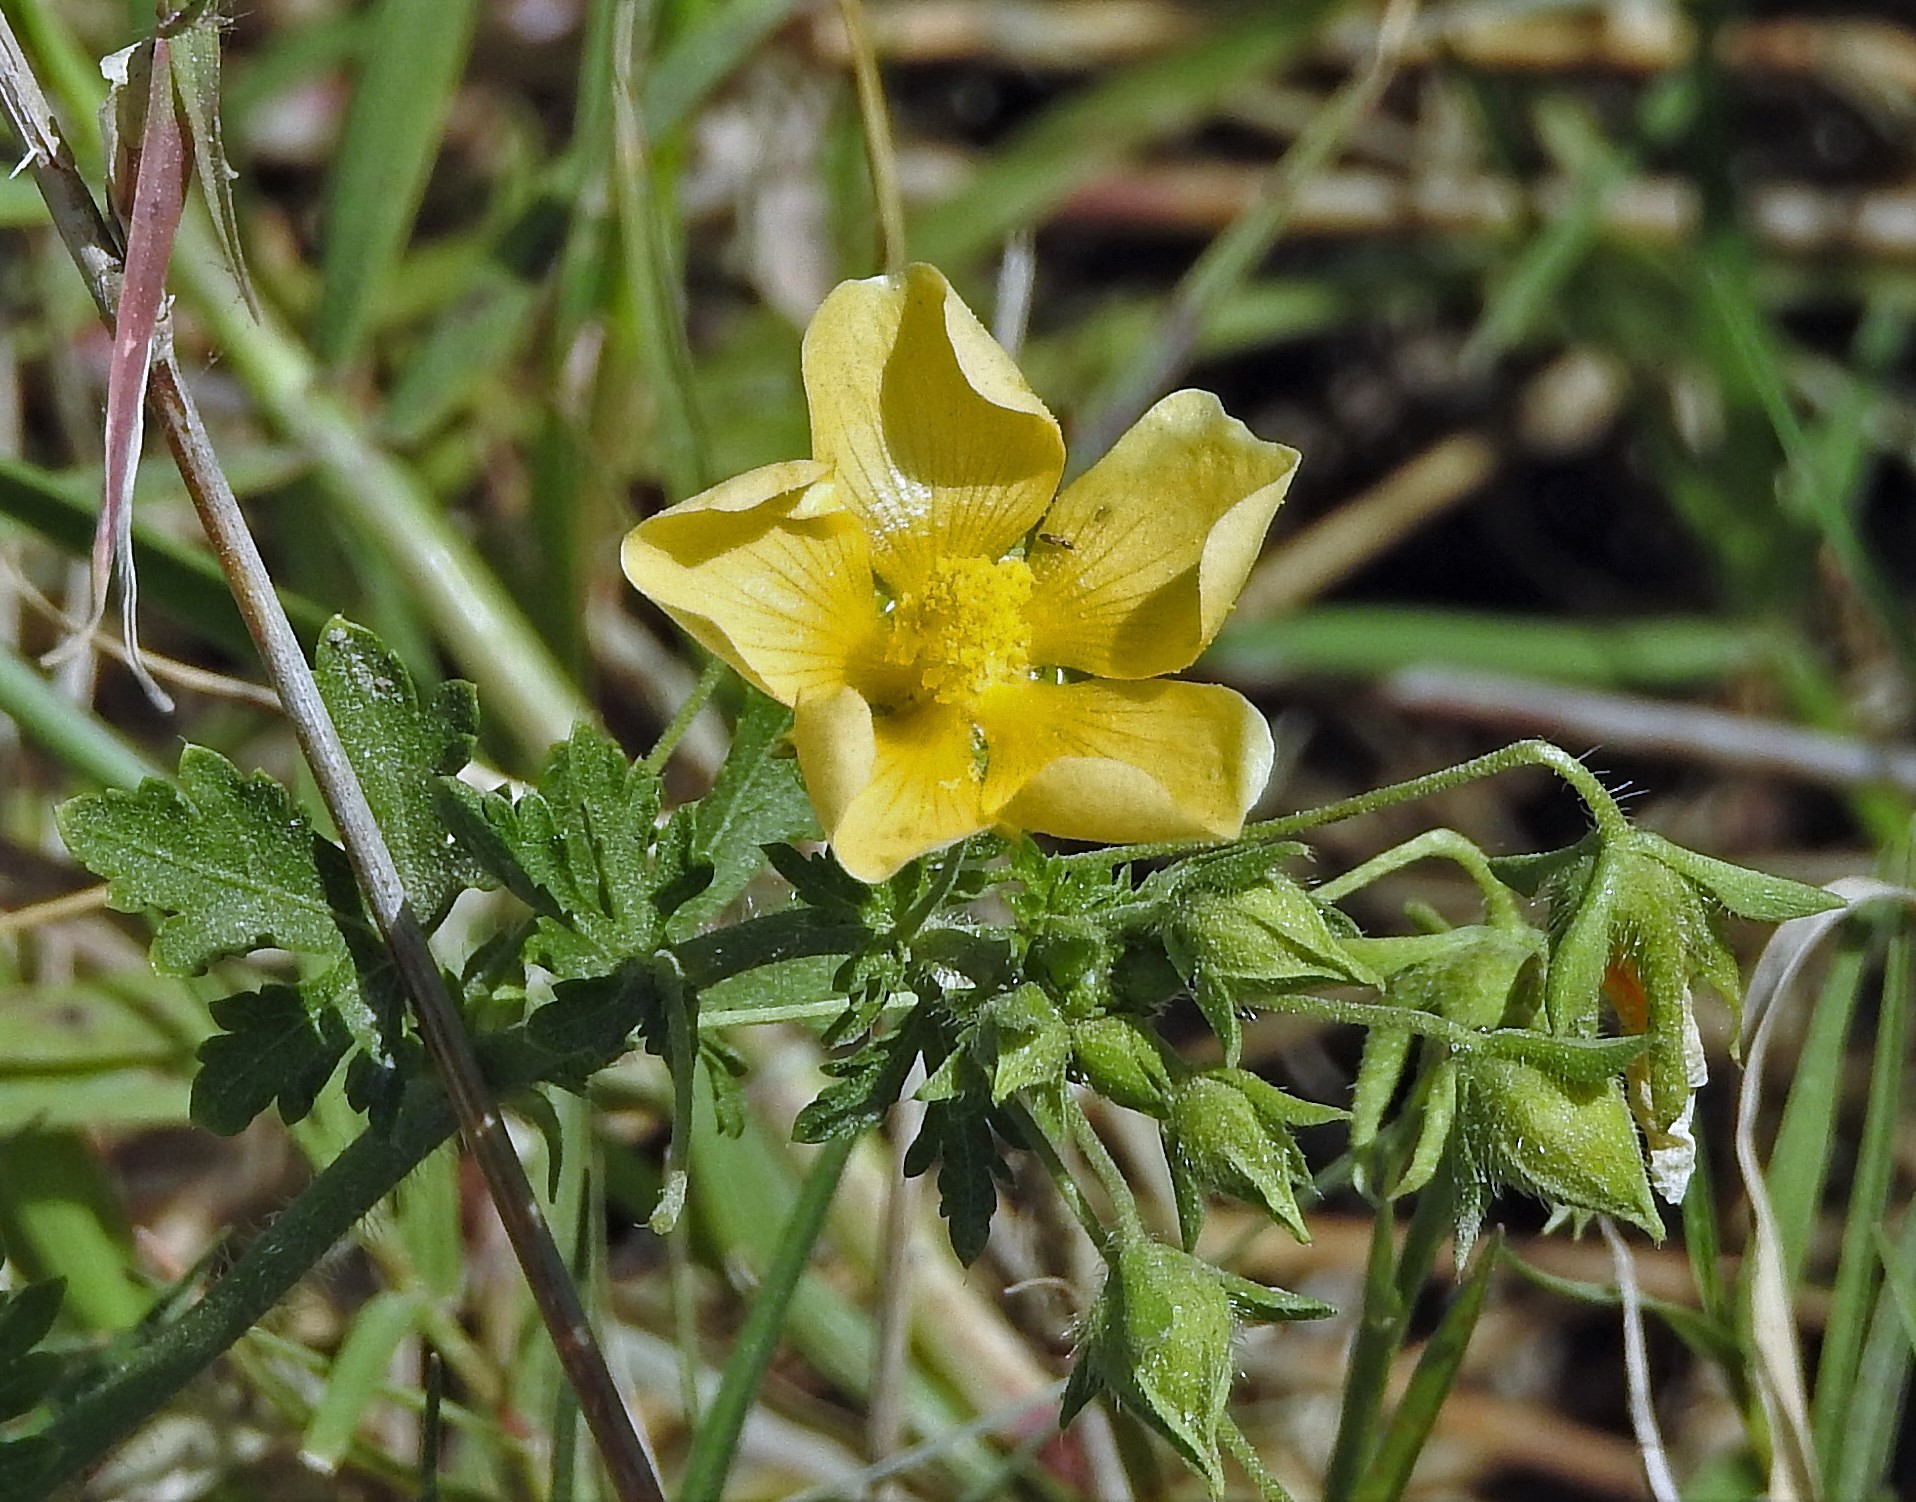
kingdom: Plantae
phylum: Tracheophyta
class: Magnoliopsida
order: Malvales
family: Malvaceae
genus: Modiolastrum
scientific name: Modiolastrum malvifolium
